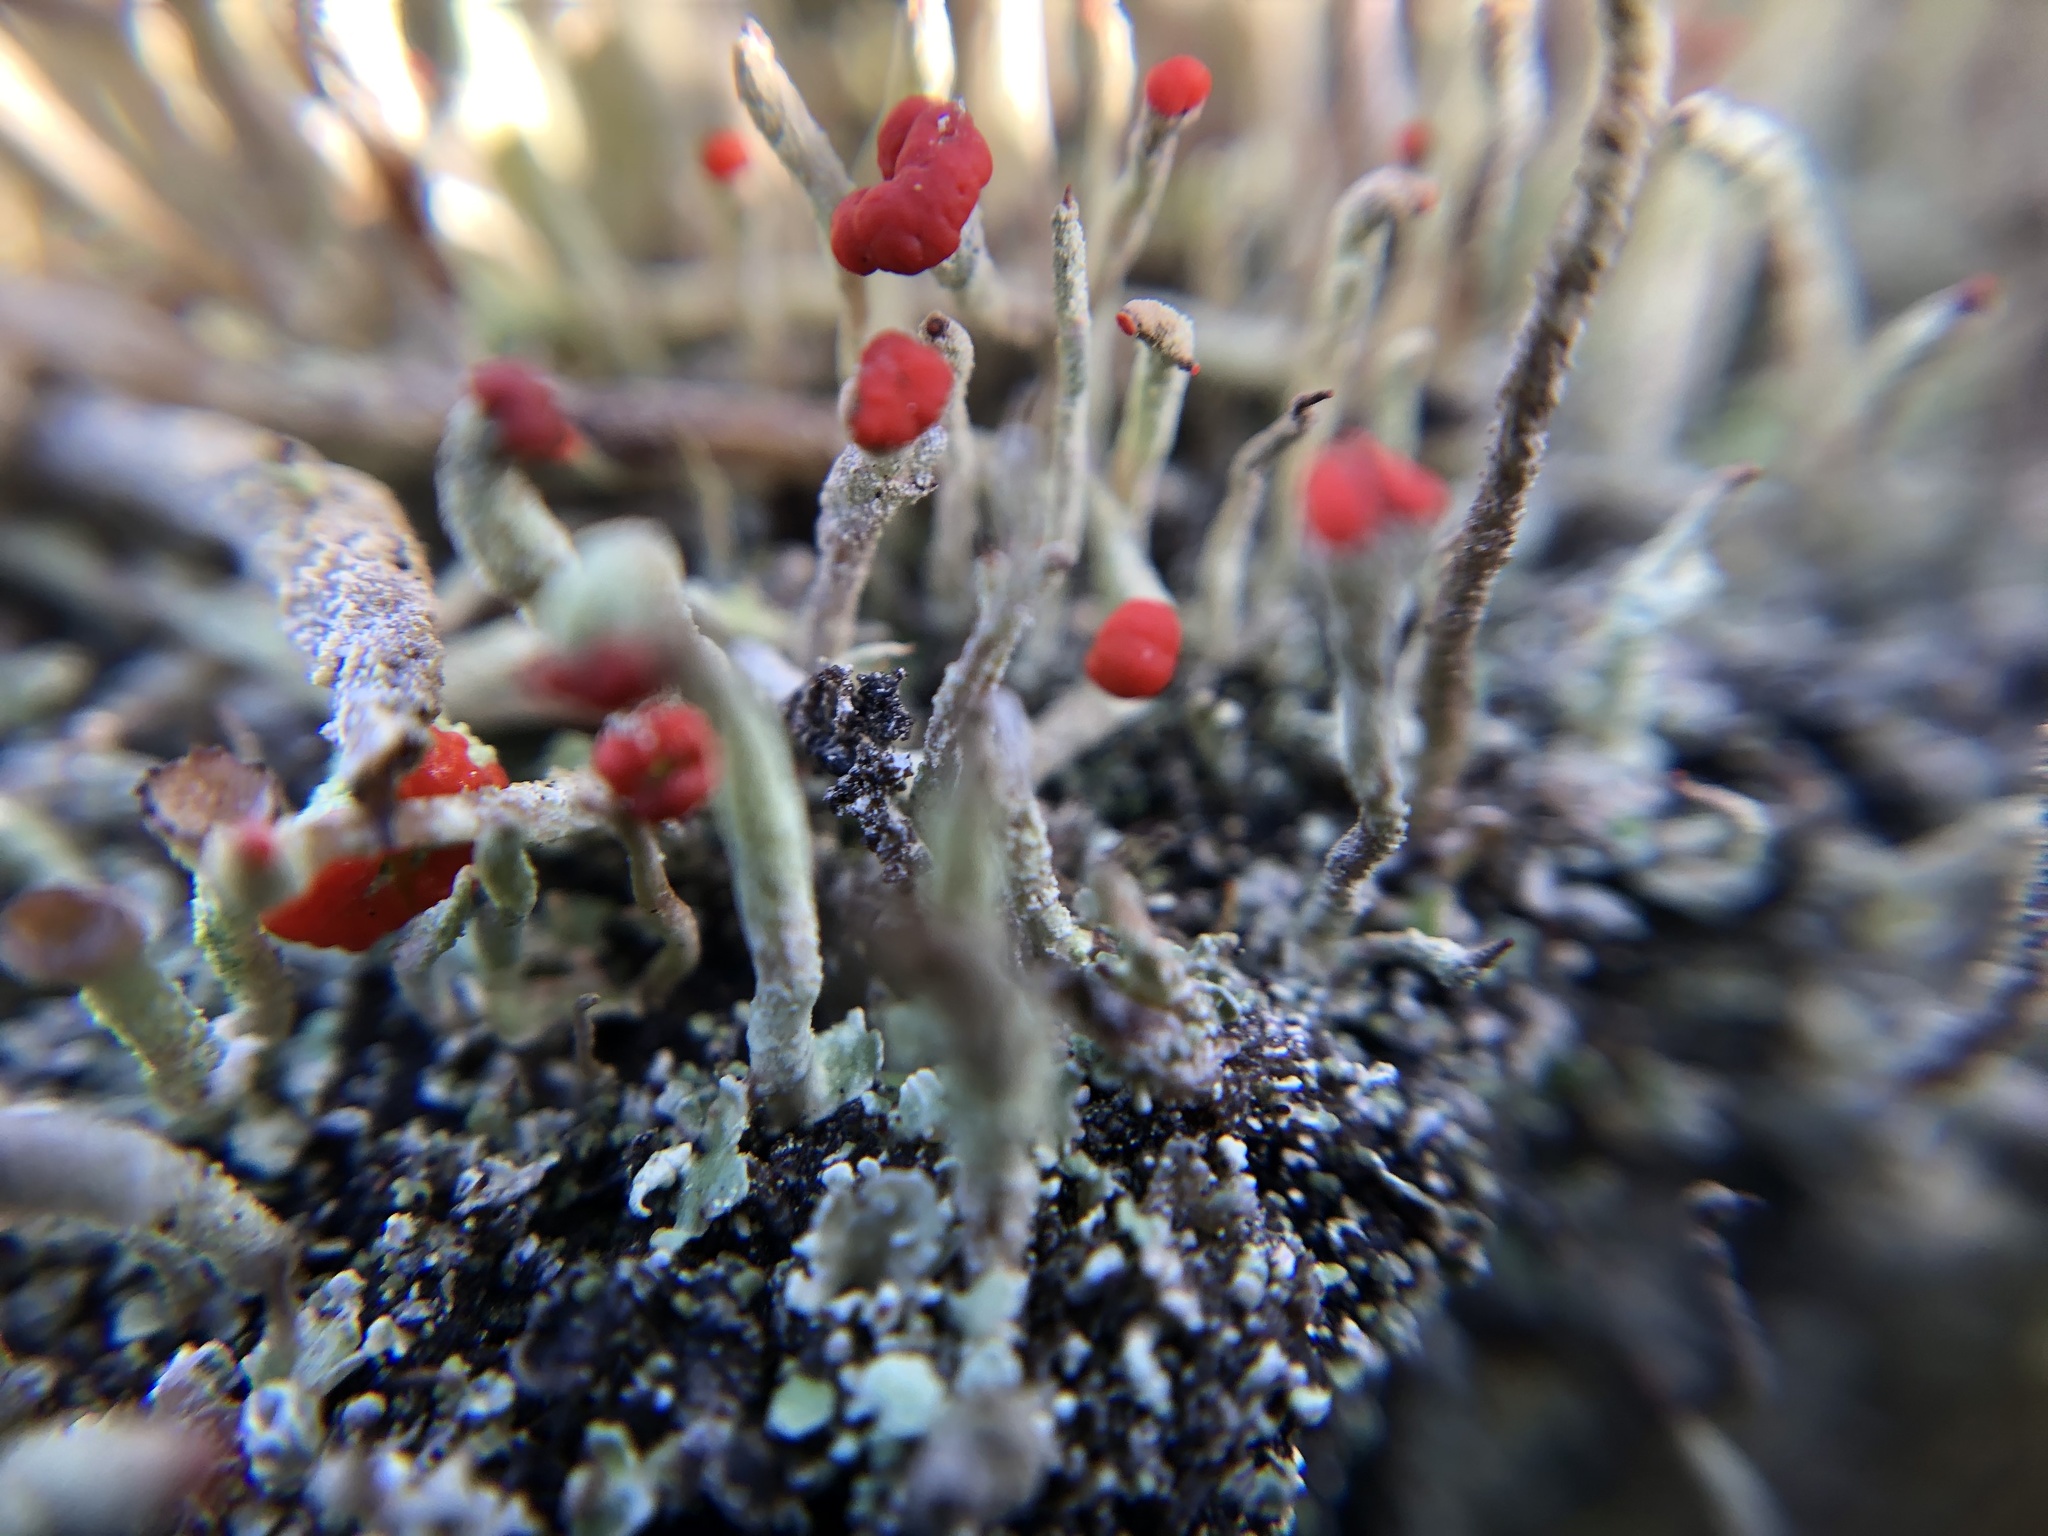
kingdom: Fungi
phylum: Ascomycota
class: Lecanoromycetes
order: Lecanorales
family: Cladoniaceae
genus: Cladonia
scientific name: Cladonia macilenta
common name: Lipstick powderhorn
